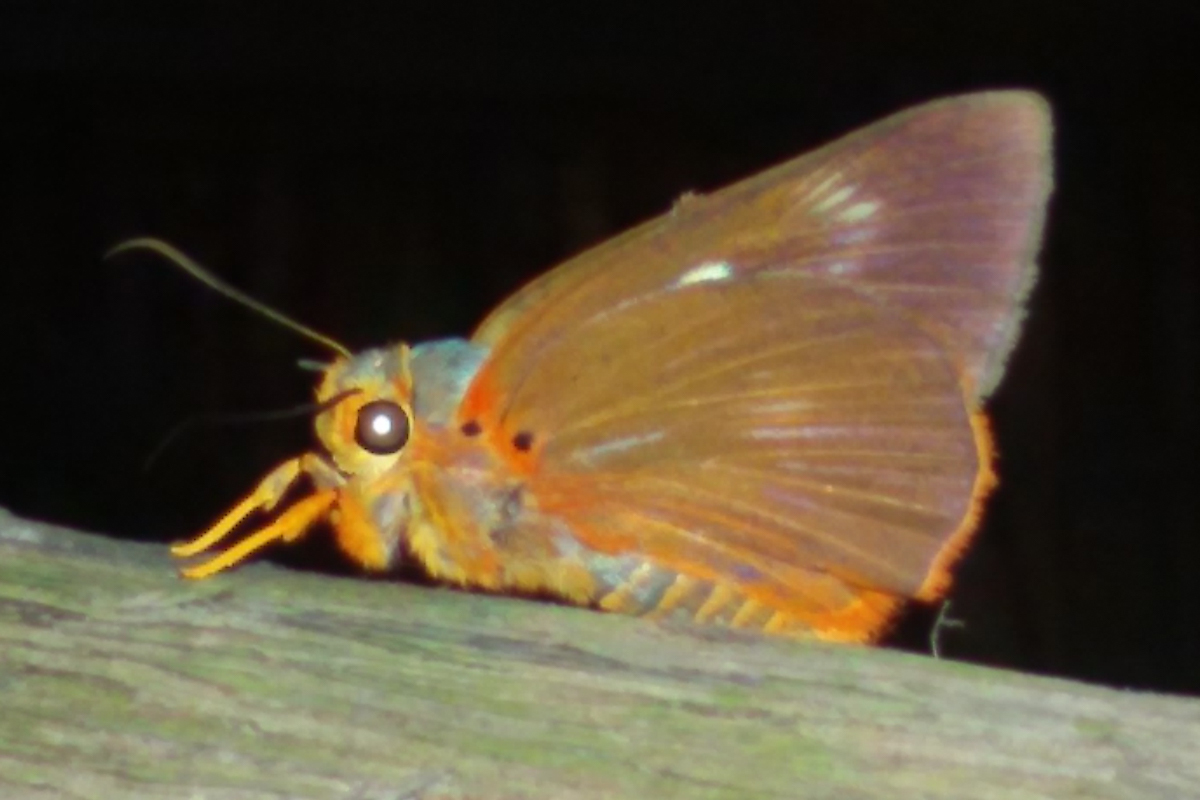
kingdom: Animalia
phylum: Arthropoda
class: Insecta
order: Lepidoptera
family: Hesperiidae
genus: Bibasis
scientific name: Bibasis jaina
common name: Common orange awlet
